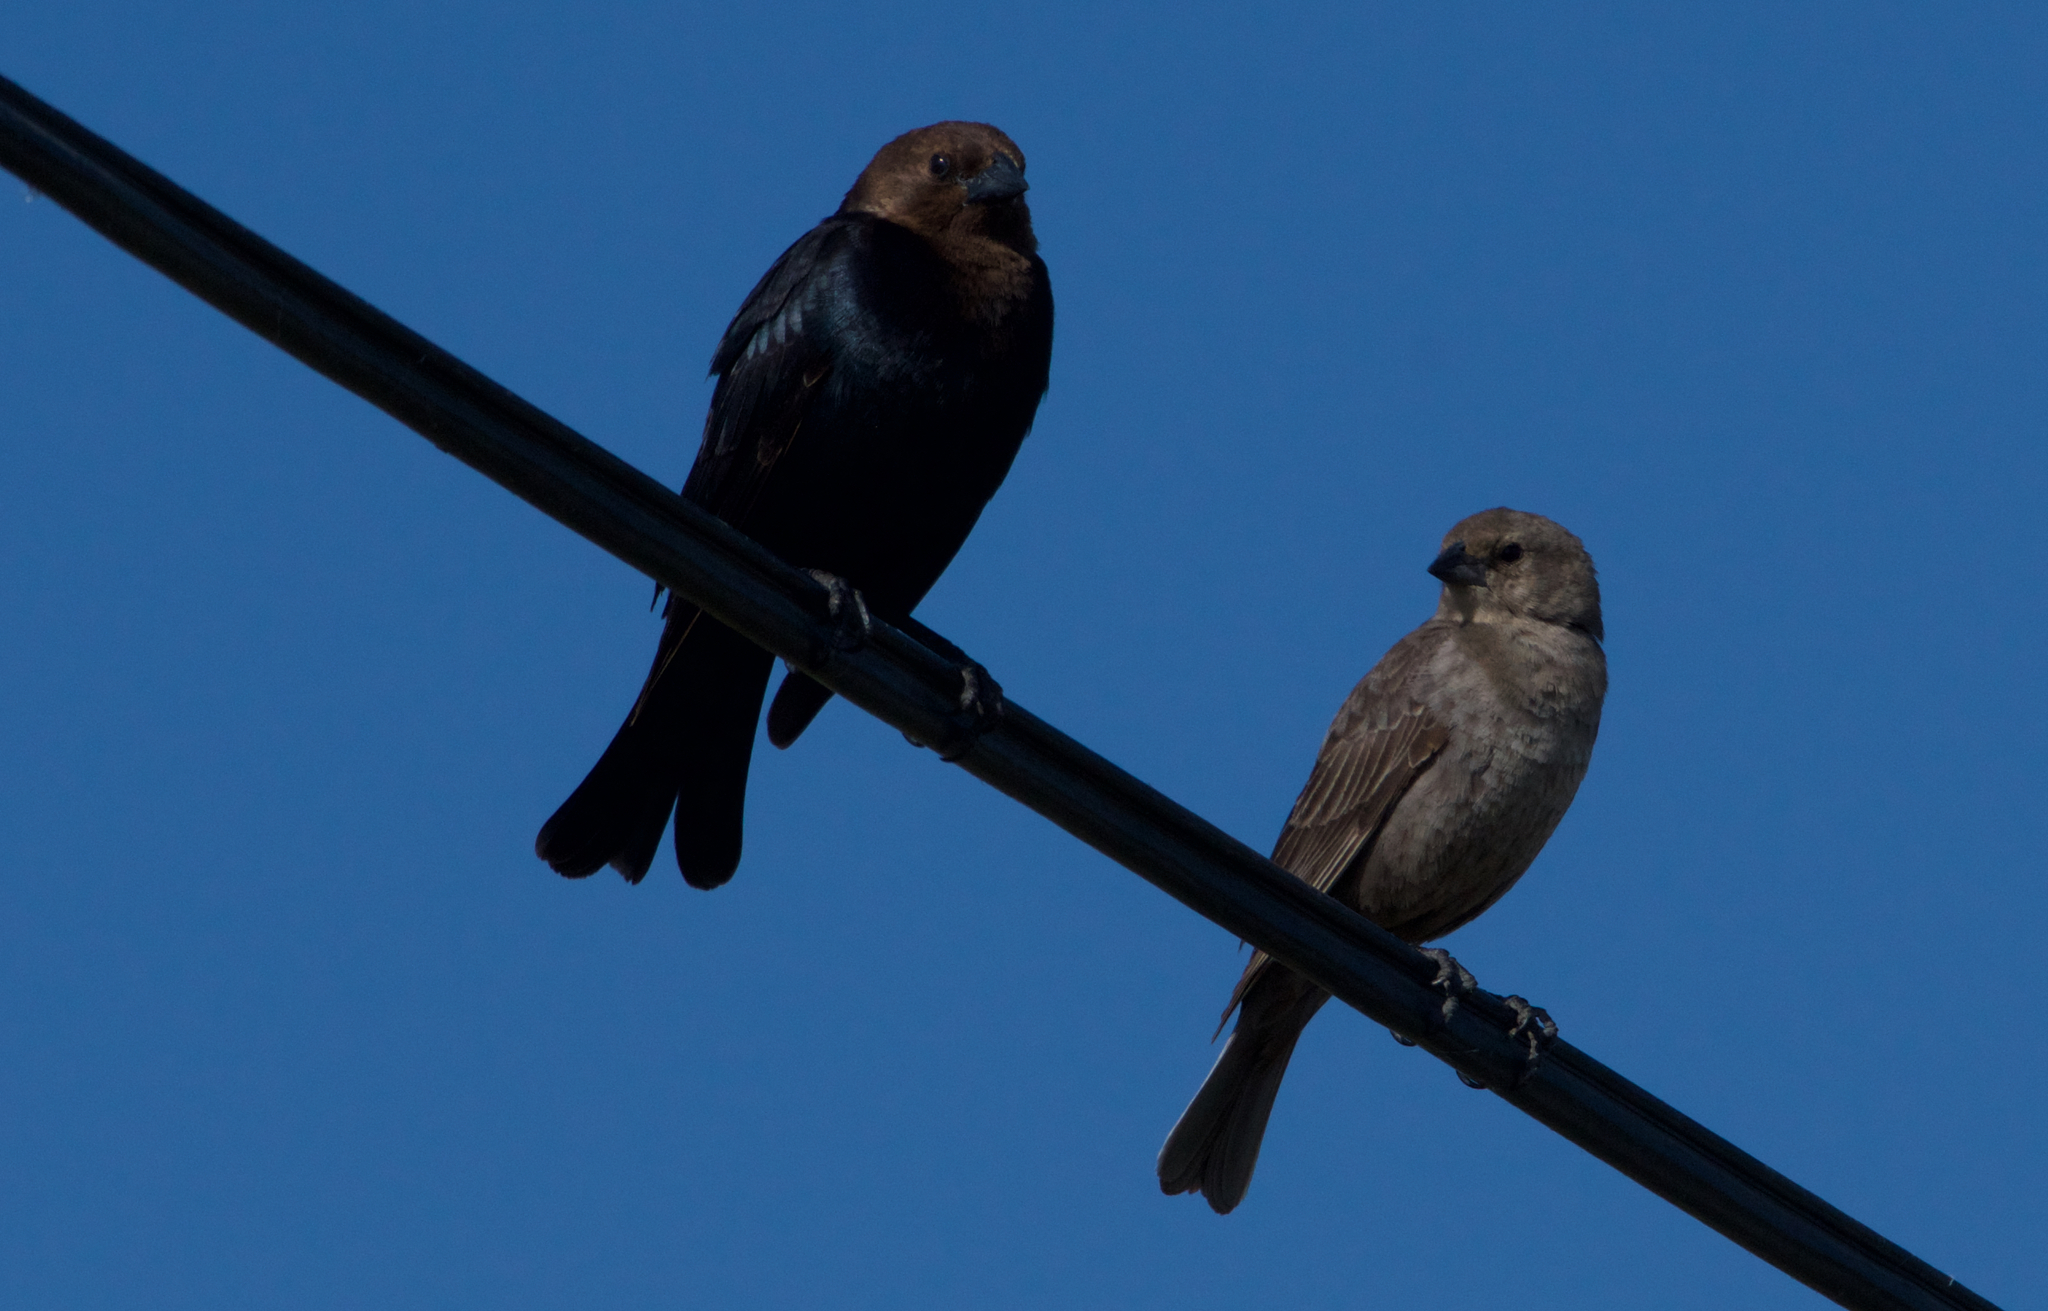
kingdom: Animalia
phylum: Chordata
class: Aves
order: Passeriformes
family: Icteridae
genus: Molothrus
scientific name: Molothrus ater
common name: Brown-headed cowbird
